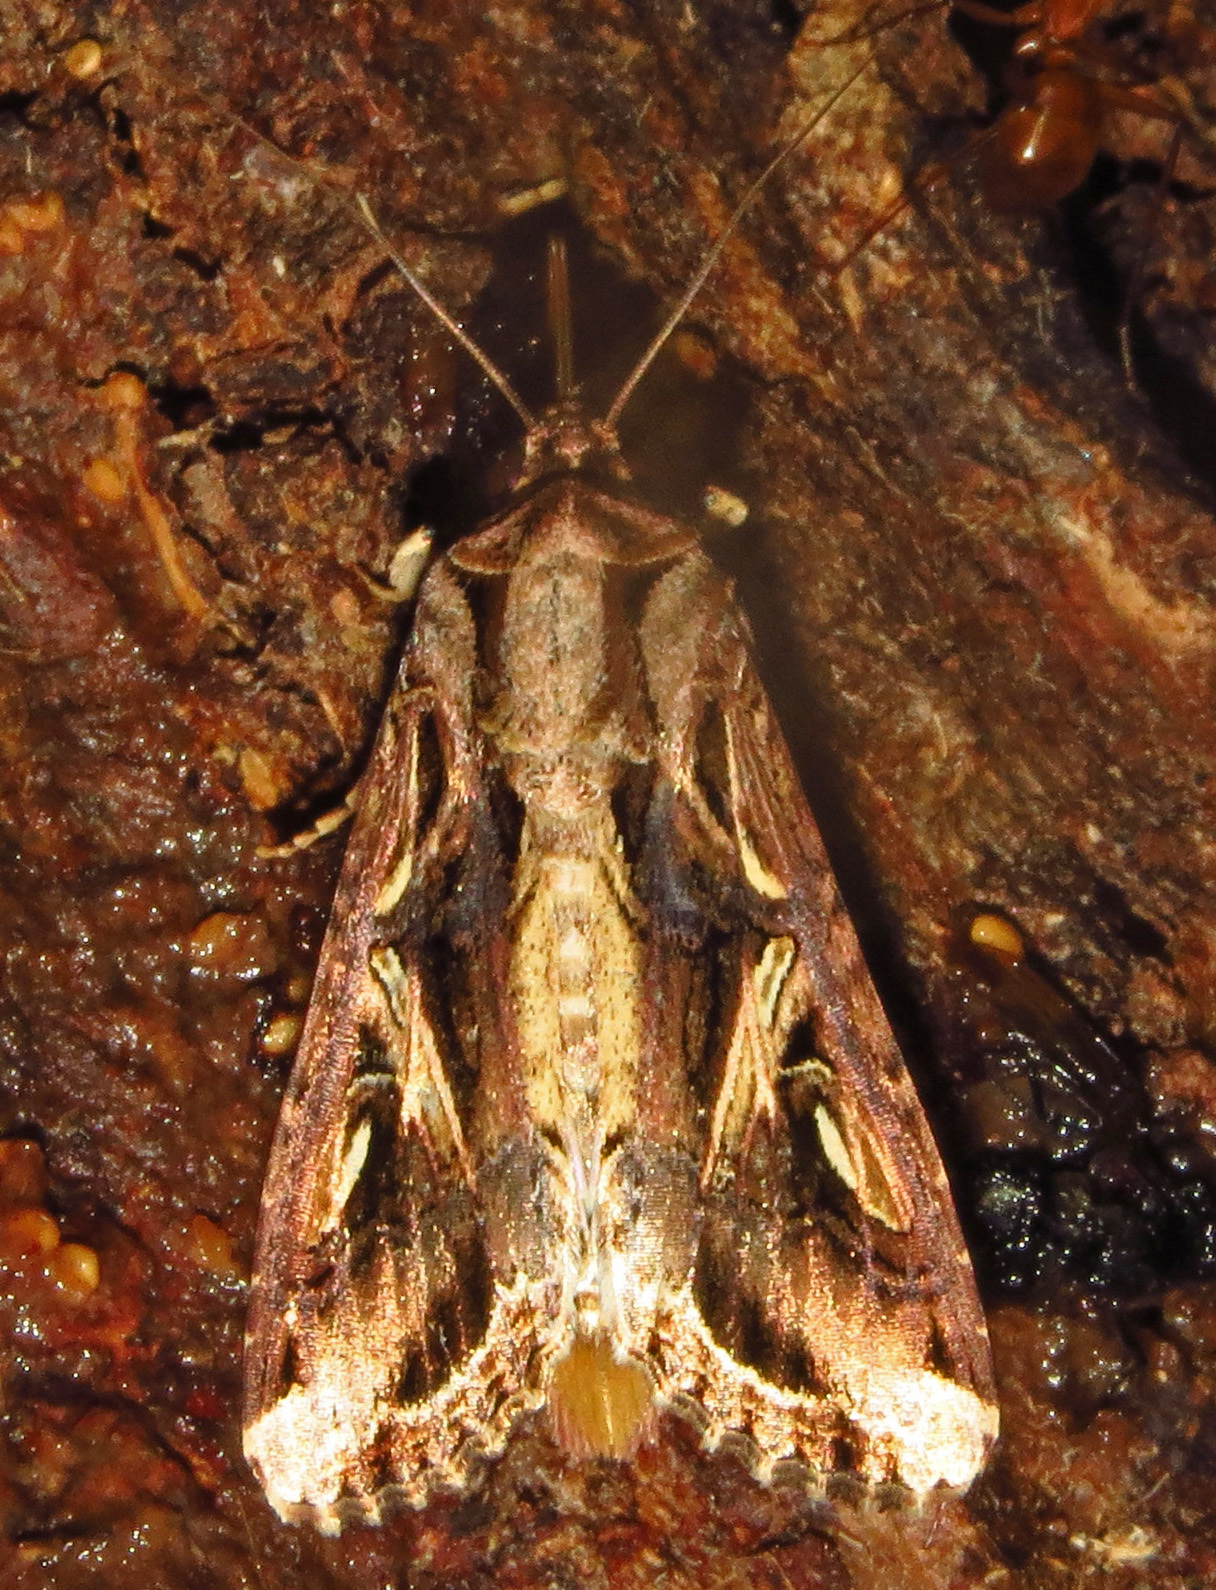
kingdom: Animalia
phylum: Arthropoda
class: Insecta
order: Lepidoptera
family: Noctuidae
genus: Spodoptera
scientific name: Spodoptera dolichos
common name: Sweetpotato armyworm
